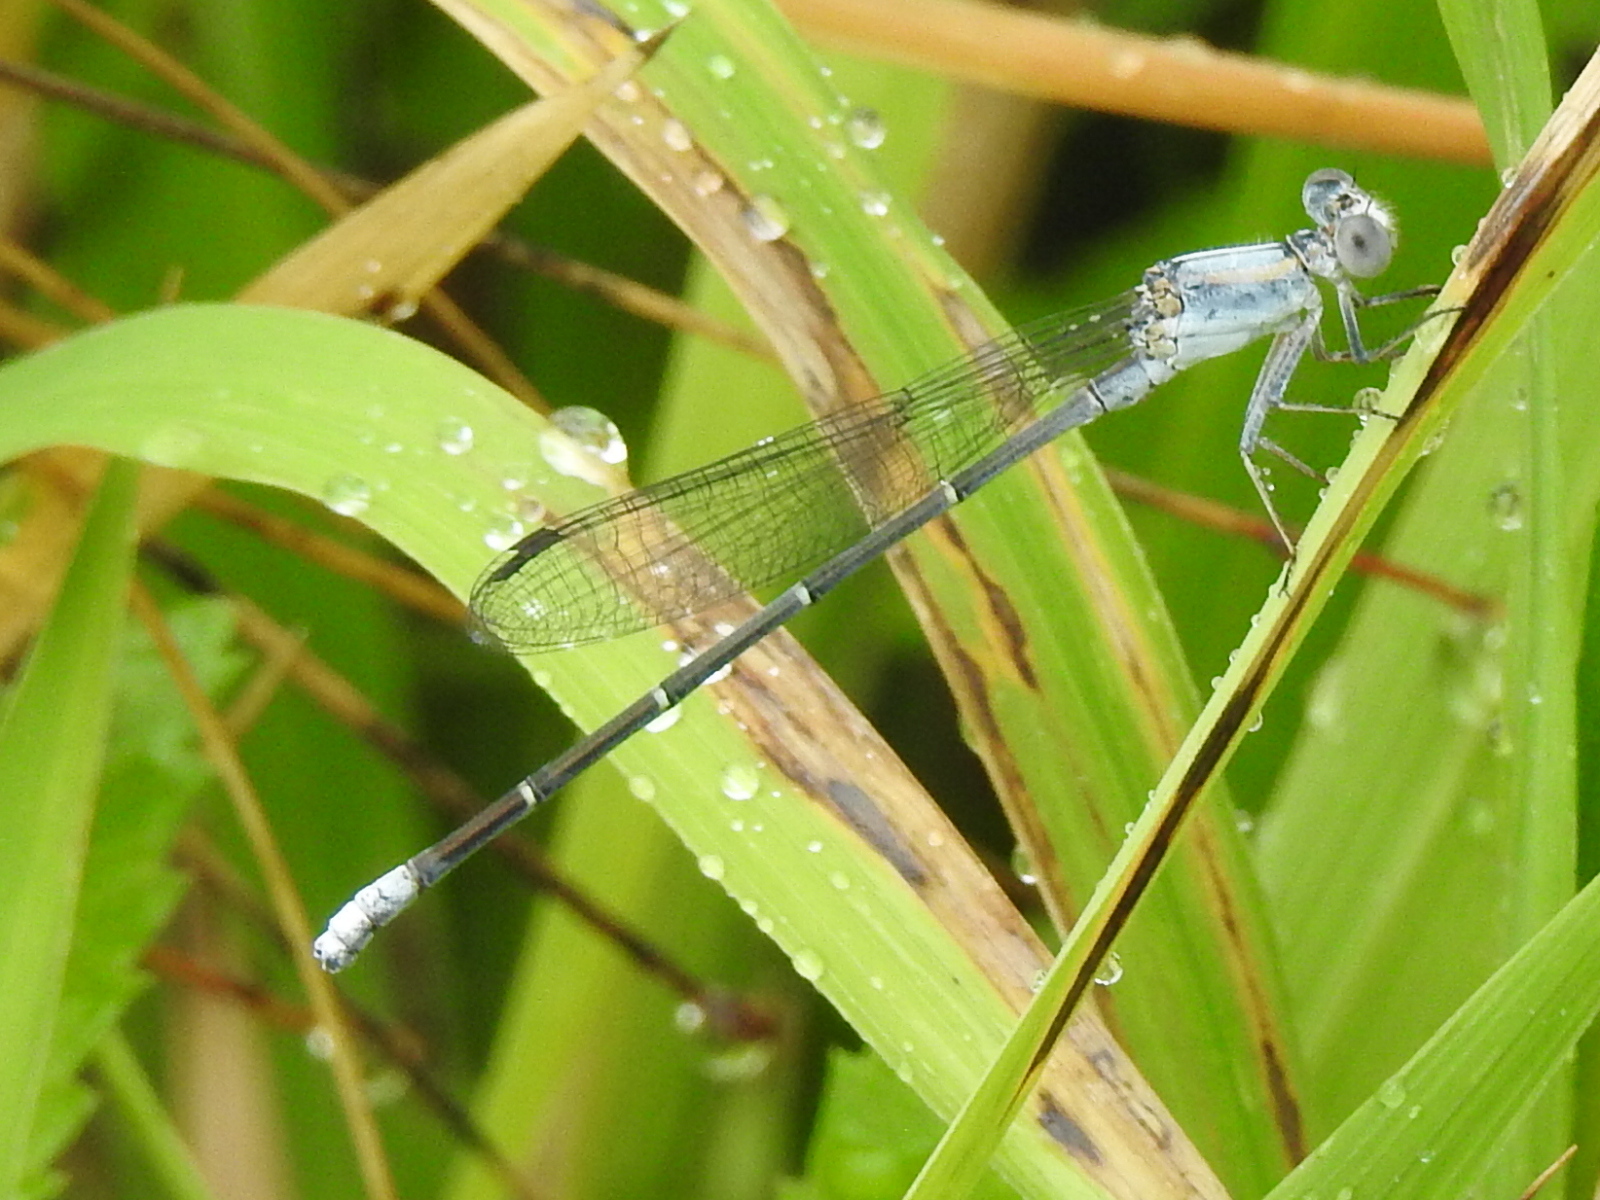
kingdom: Animalia
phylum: Arthropoda
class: Insecta
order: Odonata
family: Coenagrionidae
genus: Argia
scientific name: Argia moesta
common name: Powdered dancer
